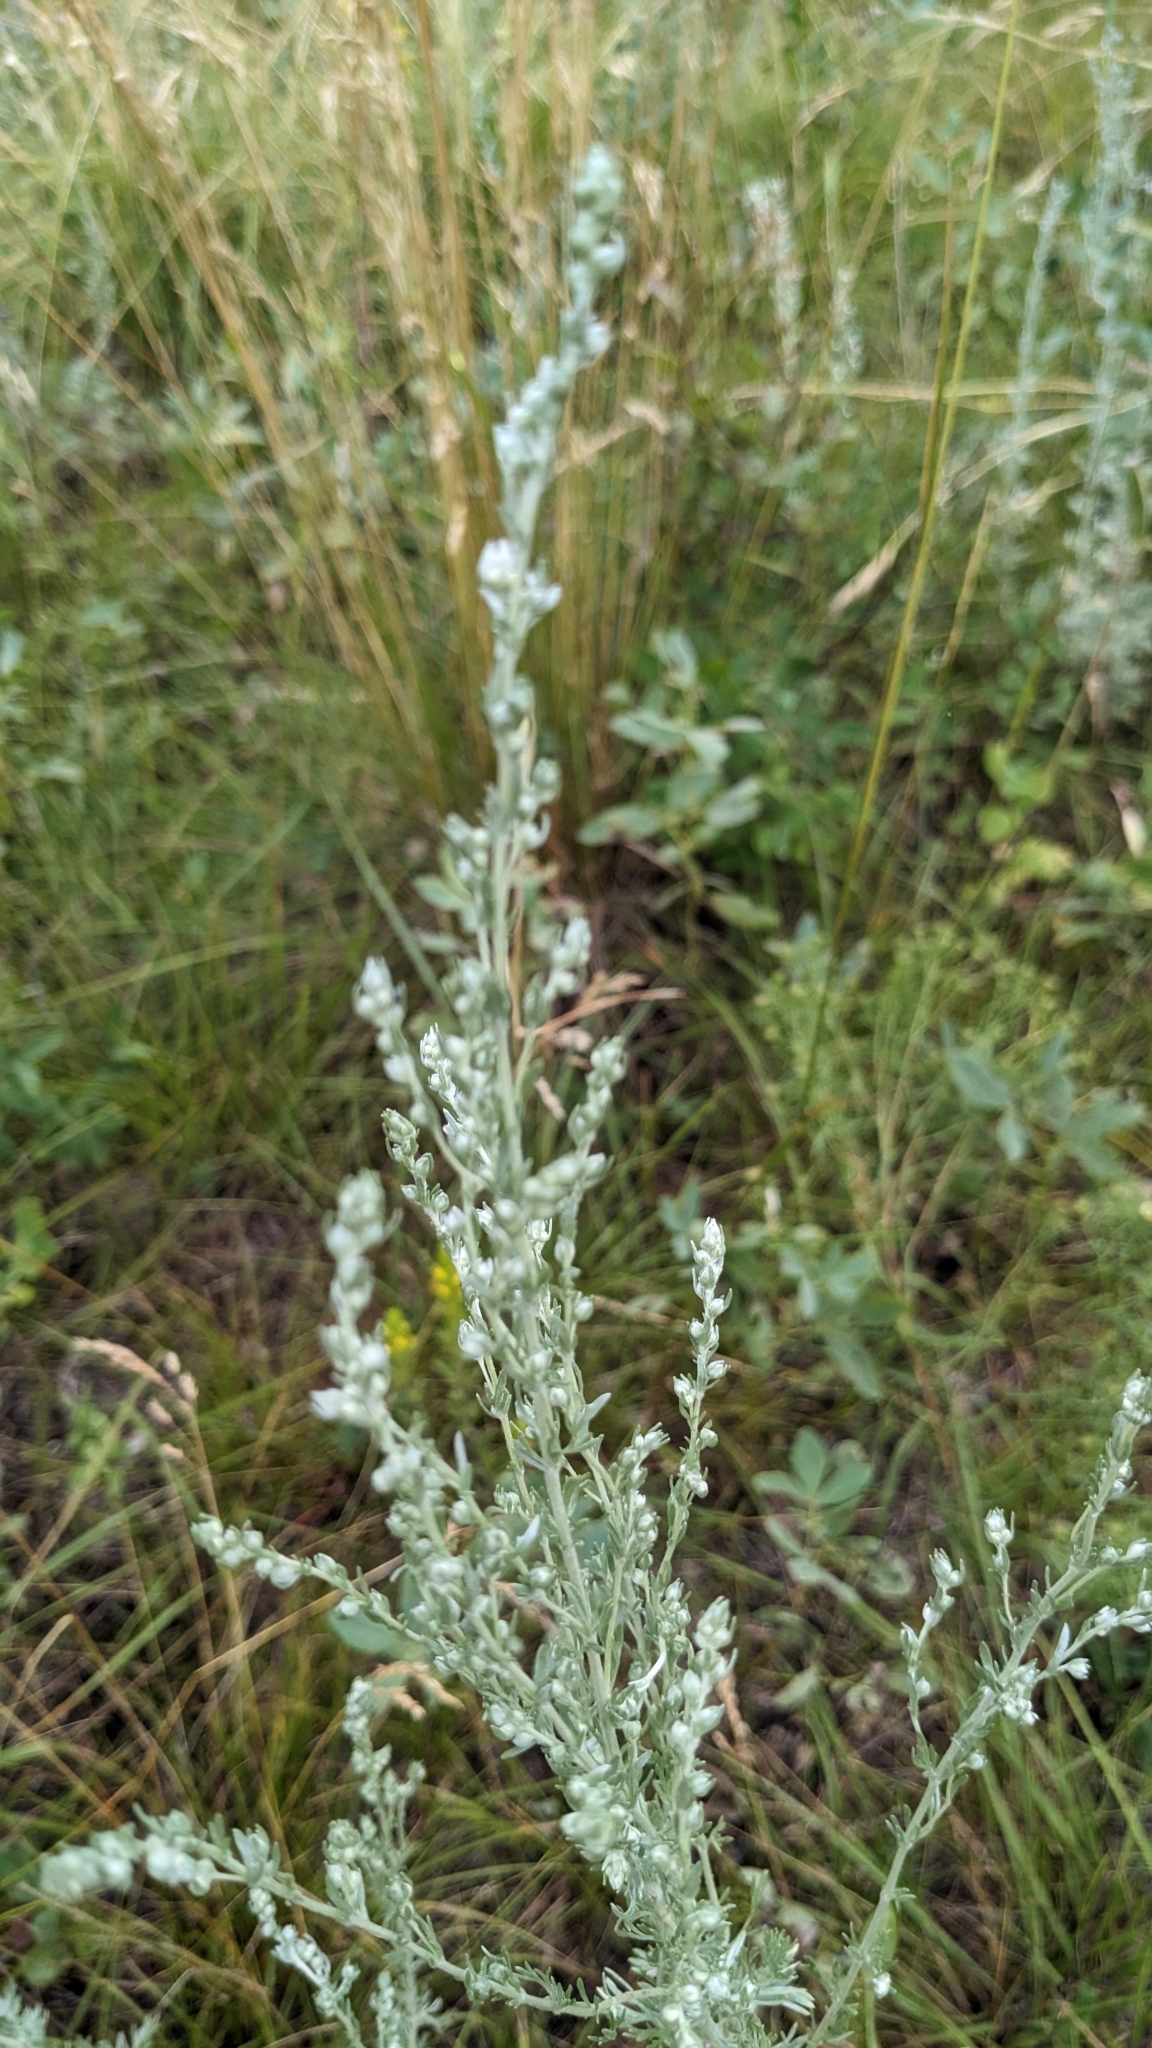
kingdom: Plantae
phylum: Tracheophyta
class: Magnoliopsida
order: Asterales
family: Asteraceae
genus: Artemisia
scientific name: Artemisia frigida
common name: Prairie sagewort
